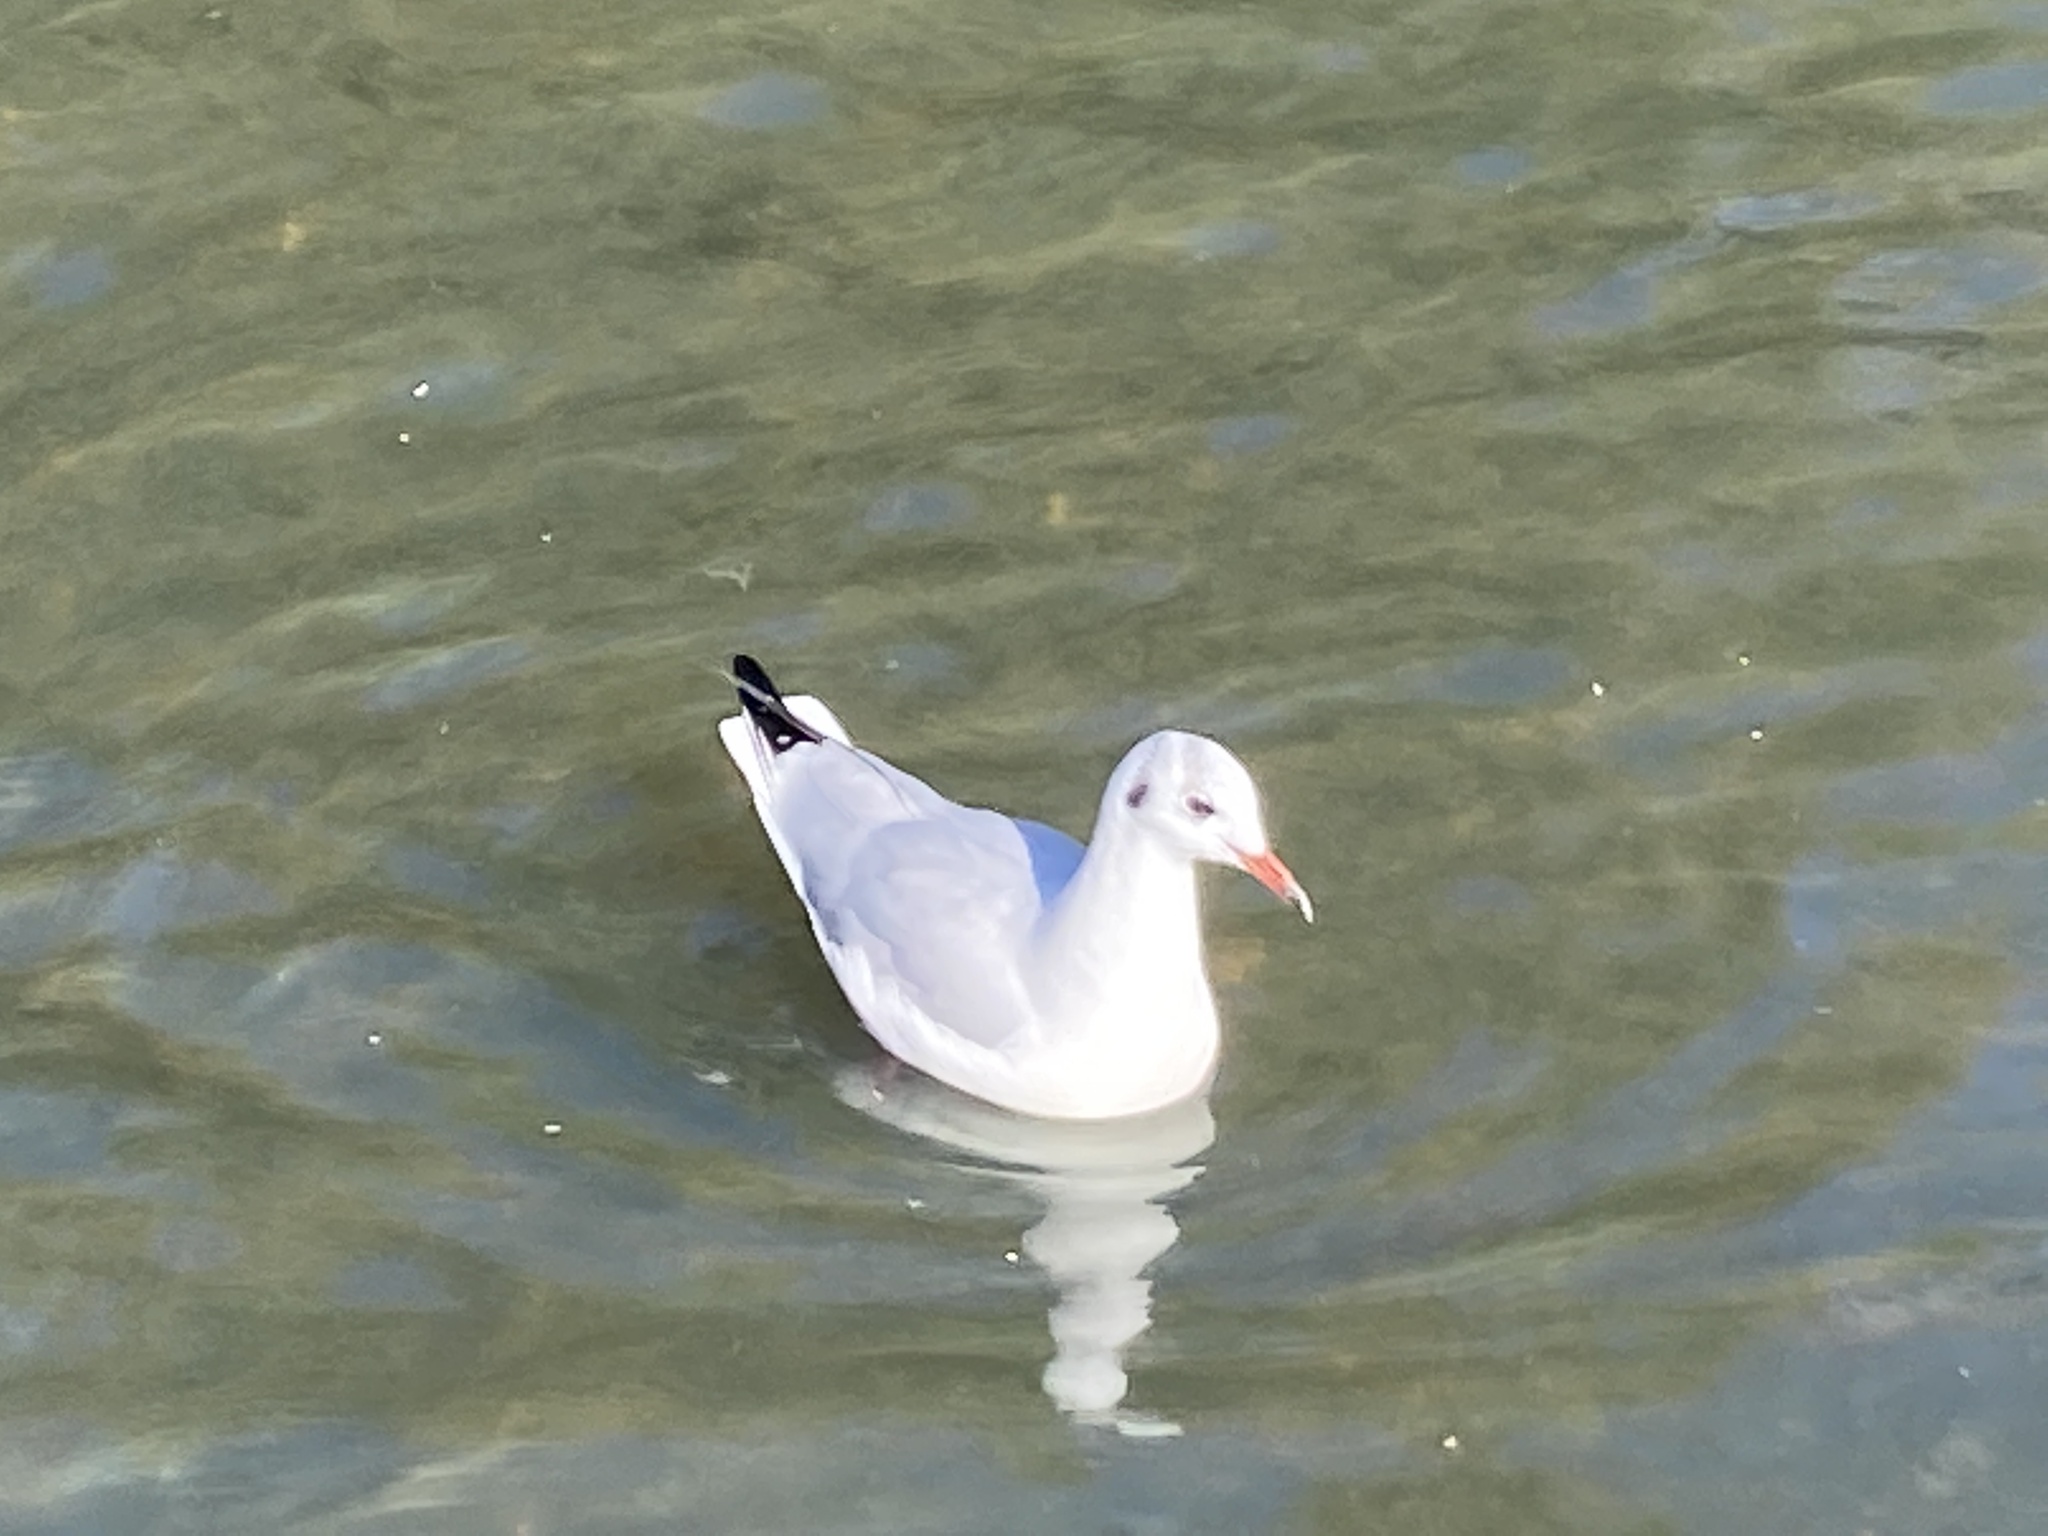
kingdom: Animalia
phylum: Chordata
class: Aves
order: Charadriiformes
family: Laridae
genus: Chroicocephalus
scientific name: Chroicocephalus ridibundus
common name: Black-headed gull
